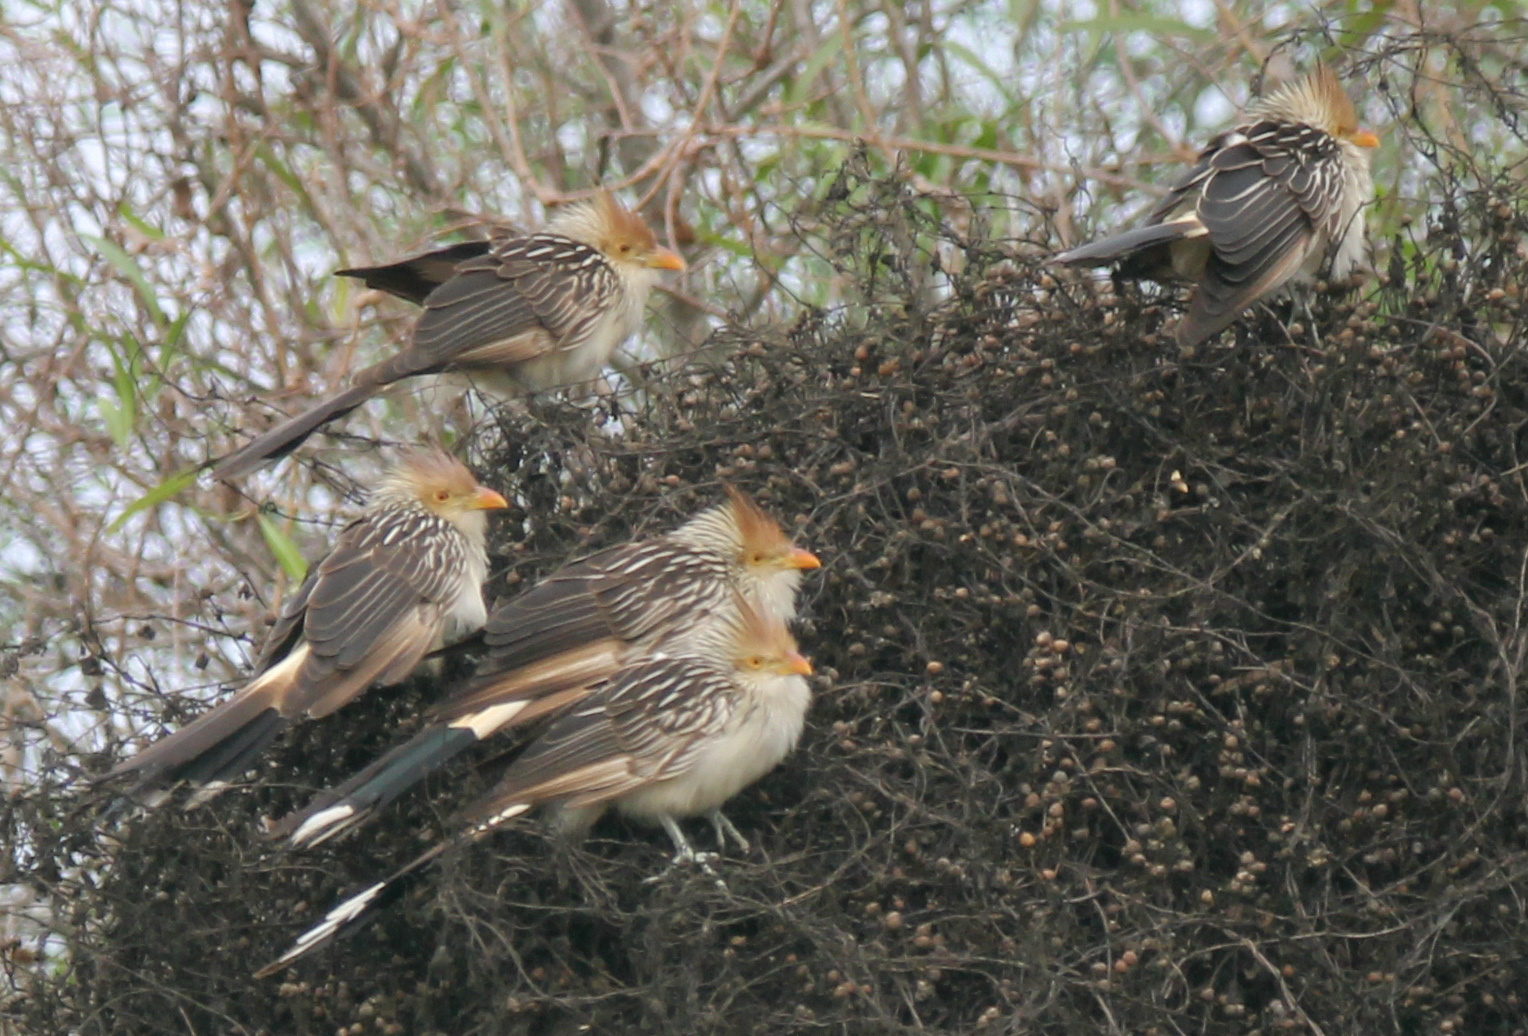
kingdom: Animalia
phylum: Chordata
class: Aves
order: Cuculiformes
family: Cuculidae
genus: Guira
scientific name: Guira guira
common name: Guira cuckoo
